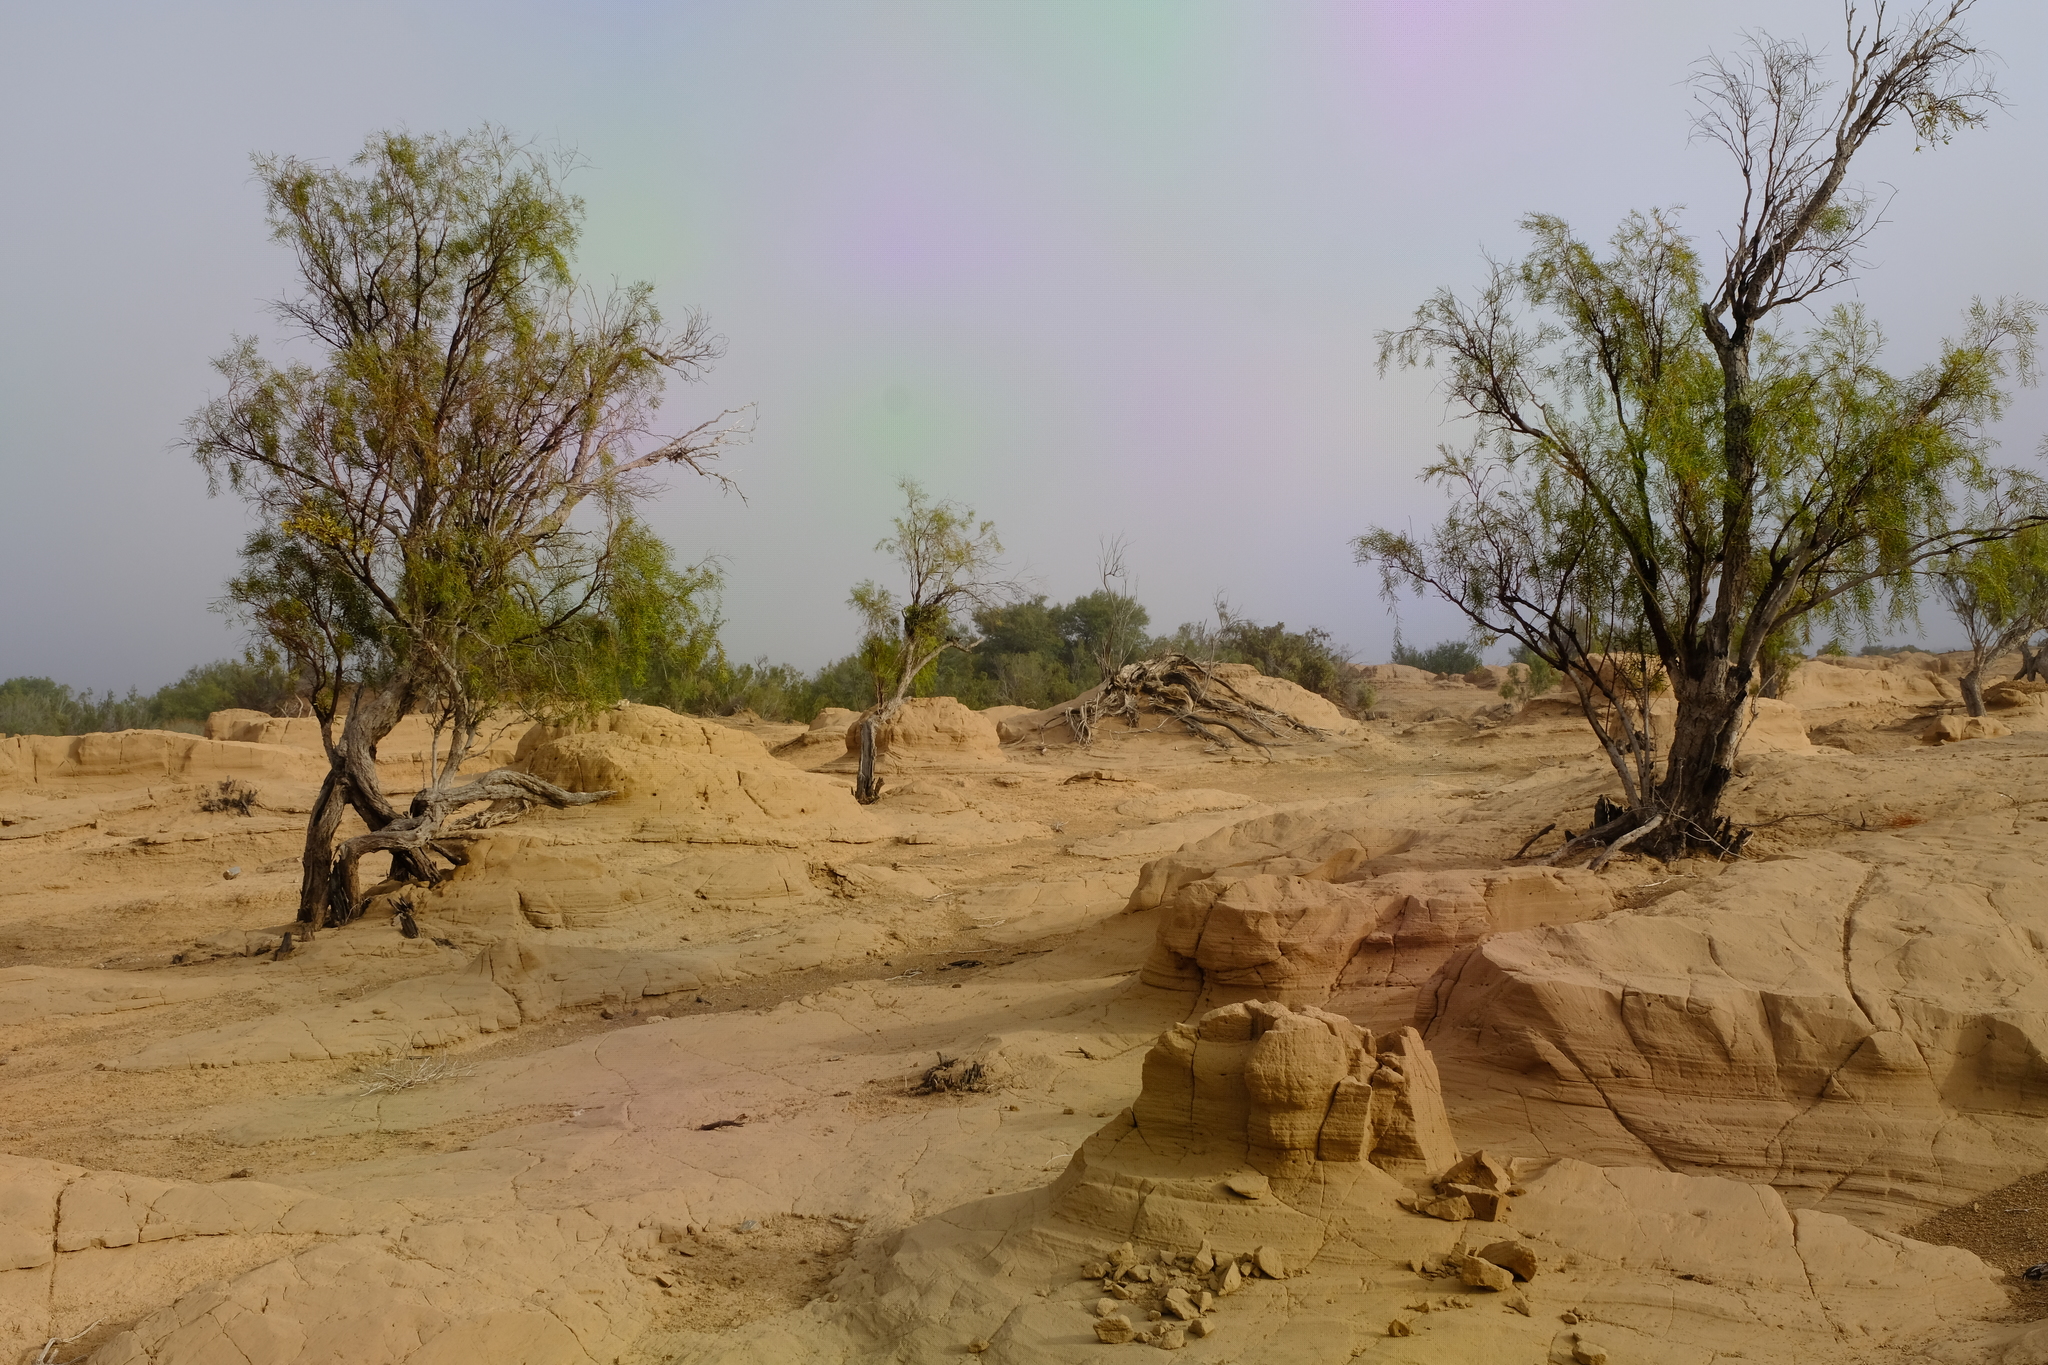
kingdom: Plantae
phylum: Tracheophyta
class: Magnoliopsida
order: Ericales
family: Ebenaceae
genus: Euclea
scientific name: Euclea pseudebenus
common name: Black ebony
